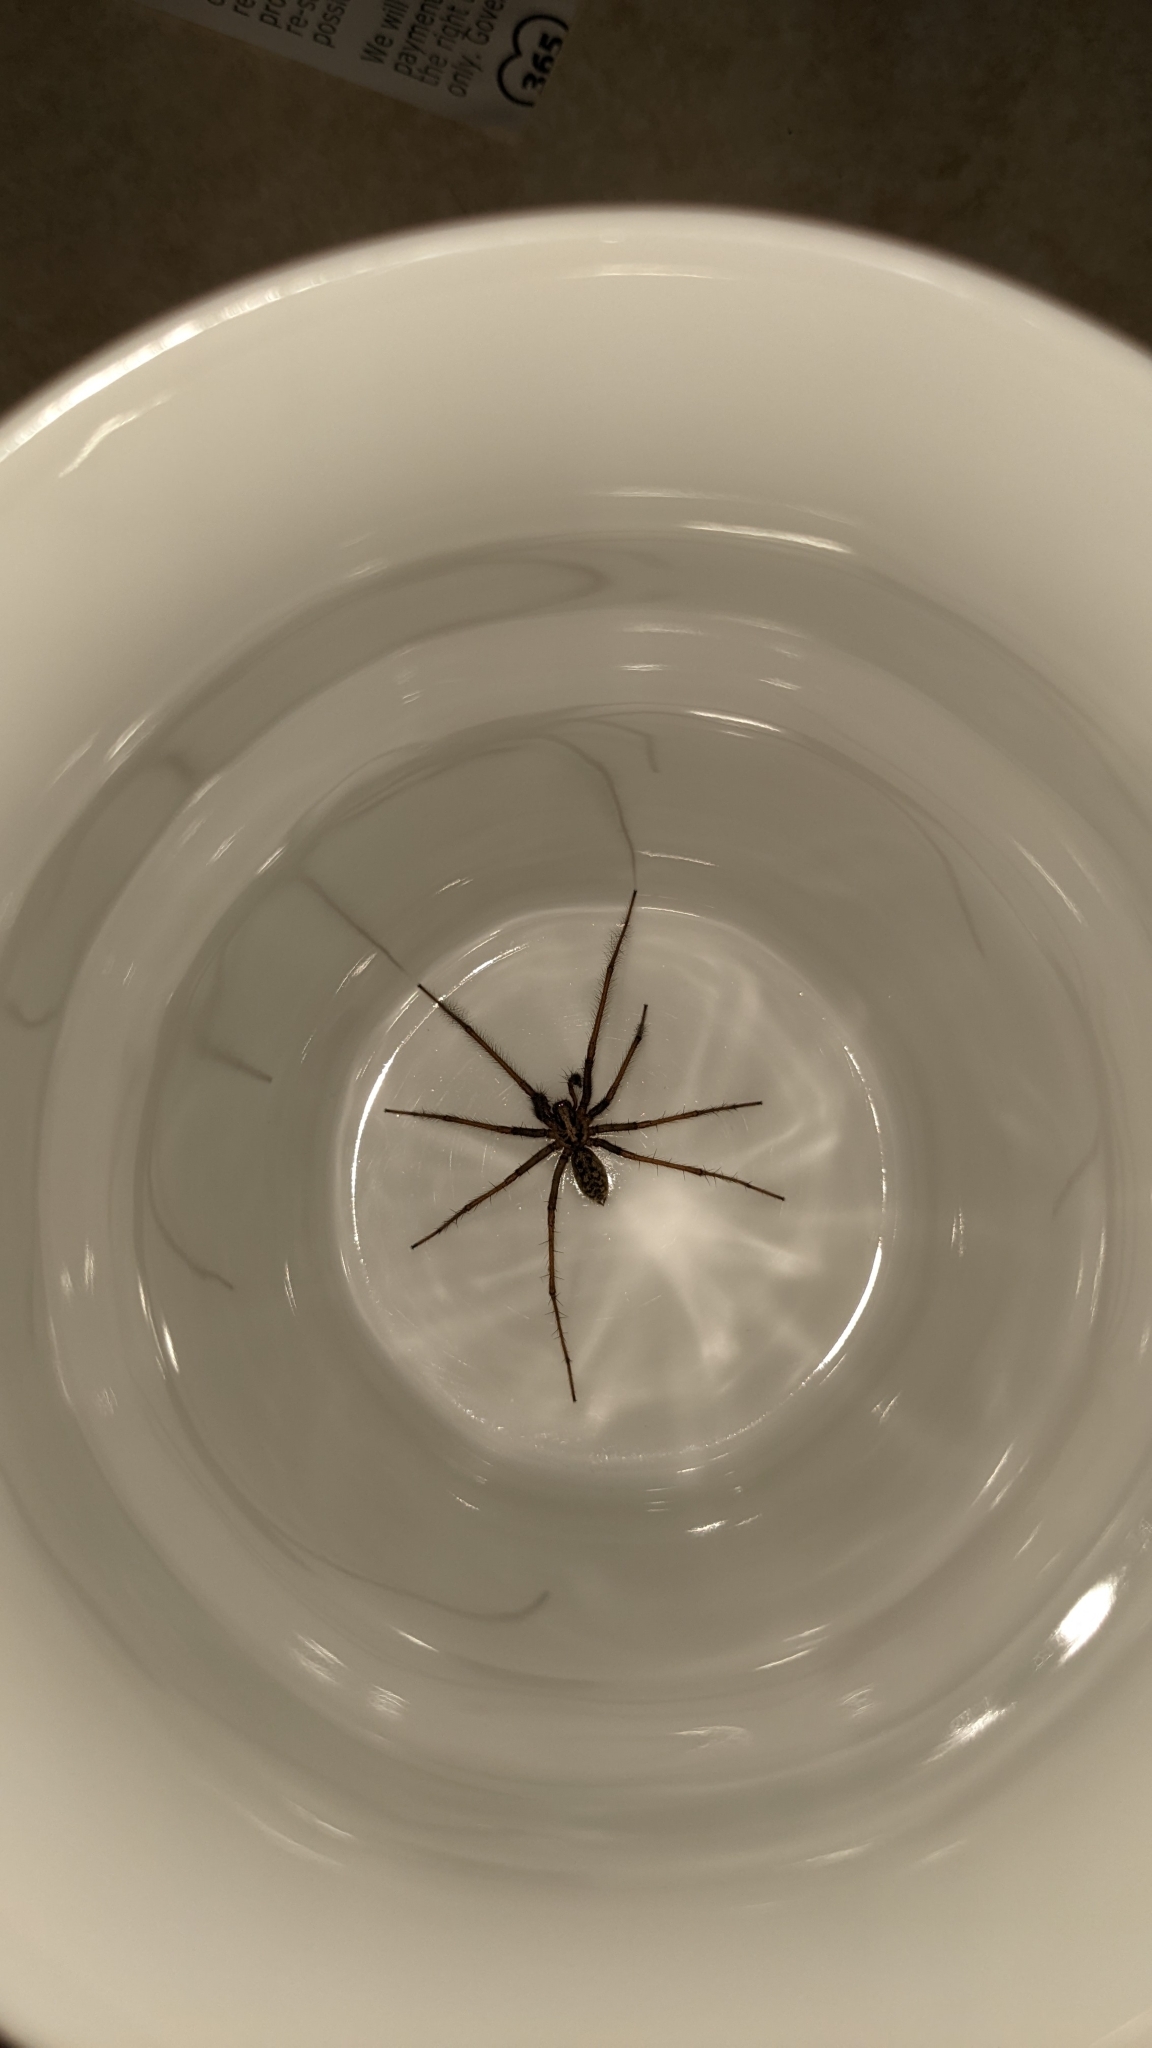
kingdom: Animalia
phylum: Arthropoda
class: Arachnida
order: Araneae
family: Agelenidae
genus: Eratigena
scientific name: Eratigena duellica
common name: Giant house spider
